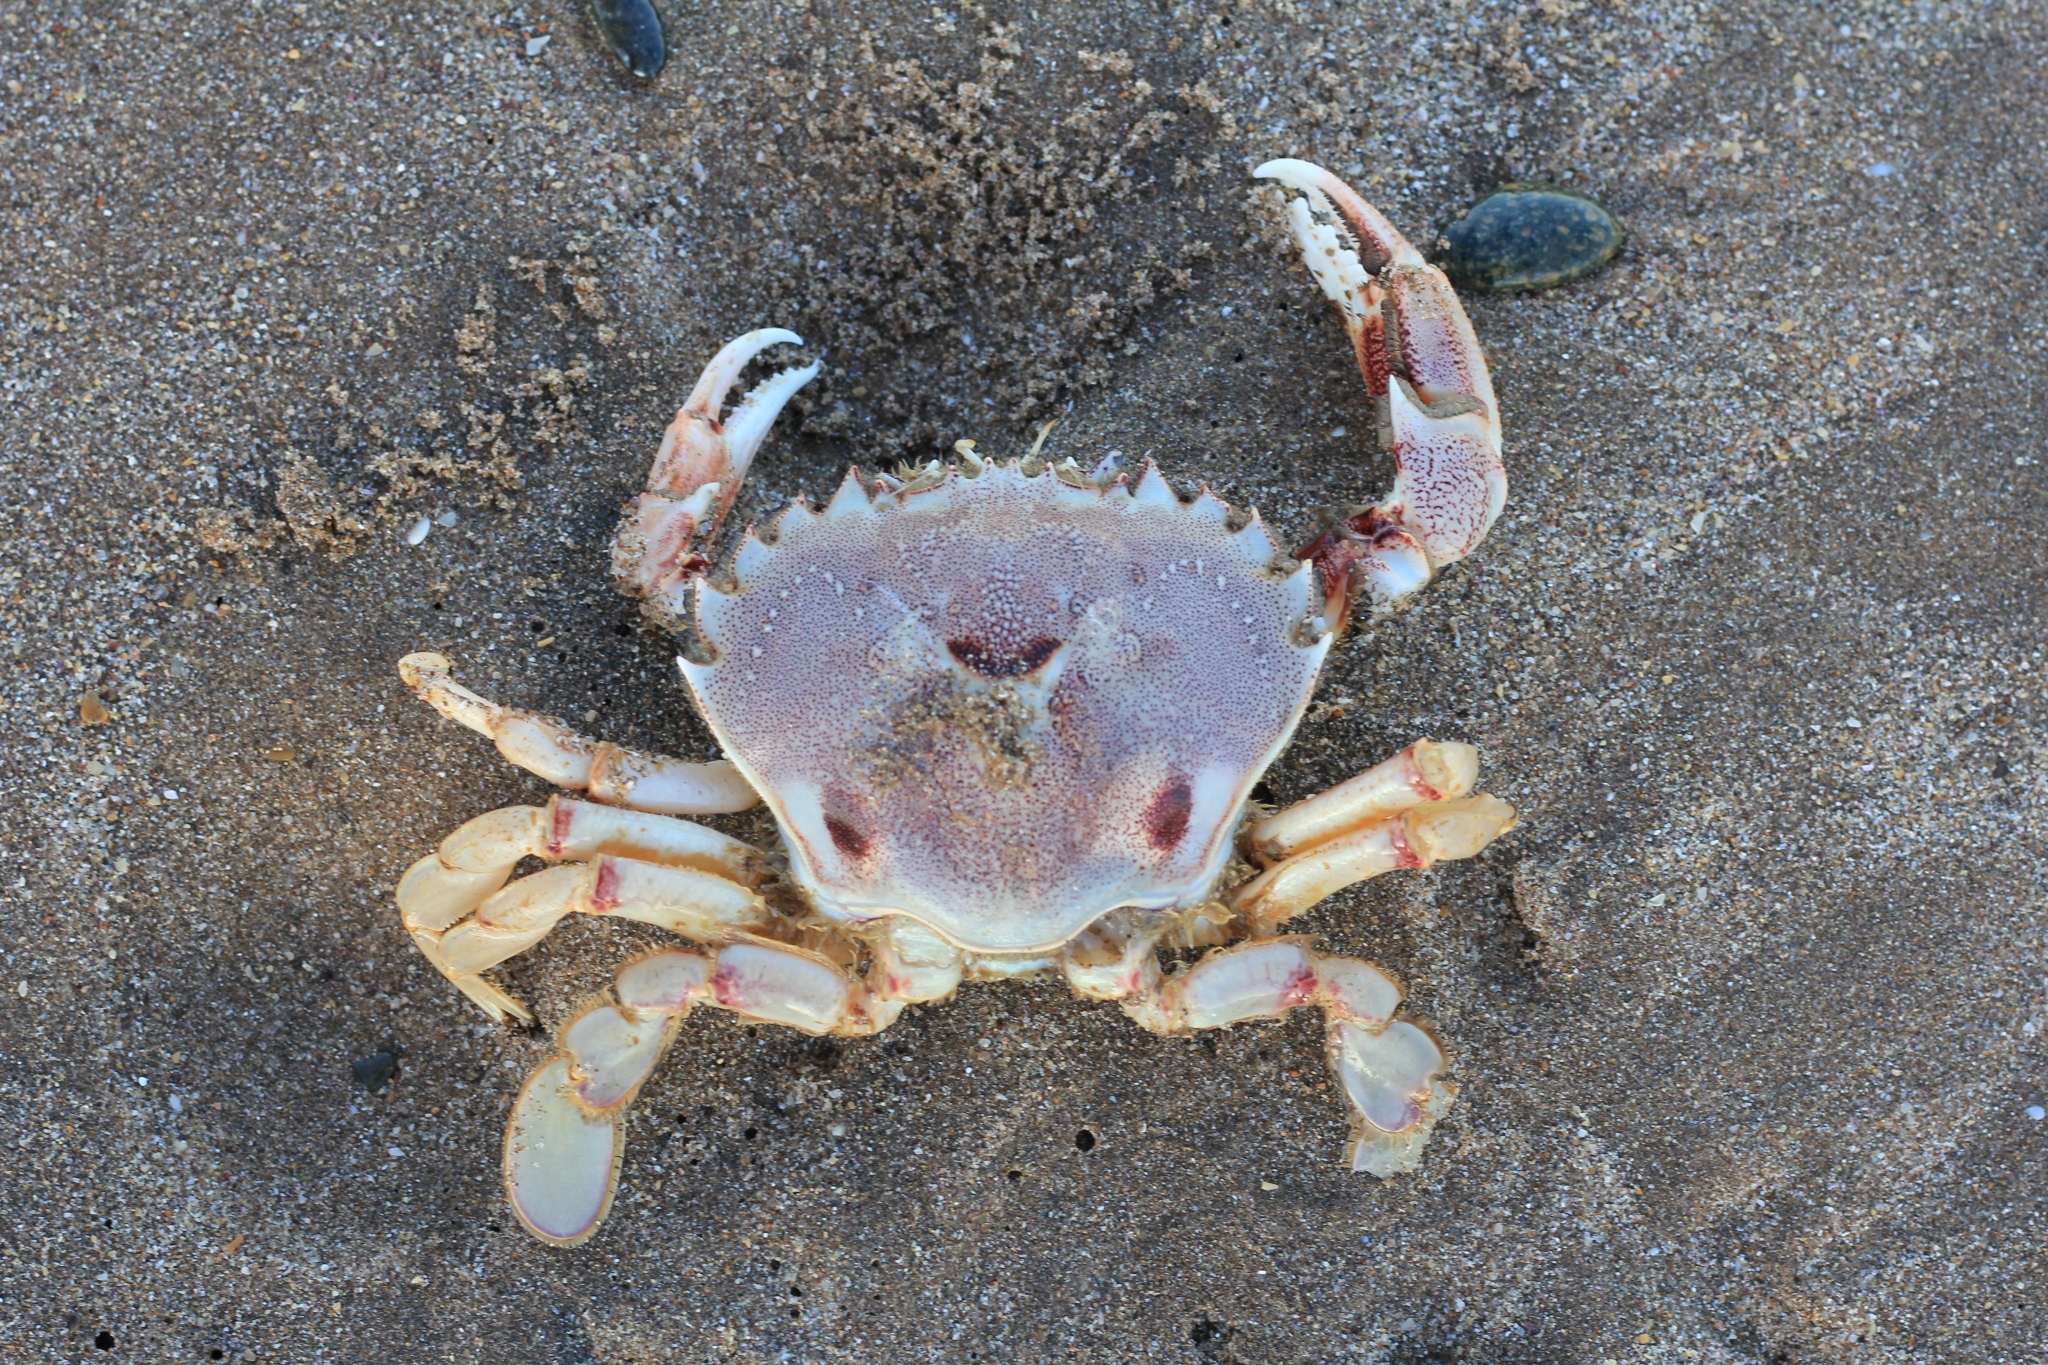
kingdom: Animalia
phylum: Arthropoda
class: Malacostraca
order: Decapoda
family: Ovalipidae
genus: Ovalipes
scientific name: Ovalipes trimaculatus
